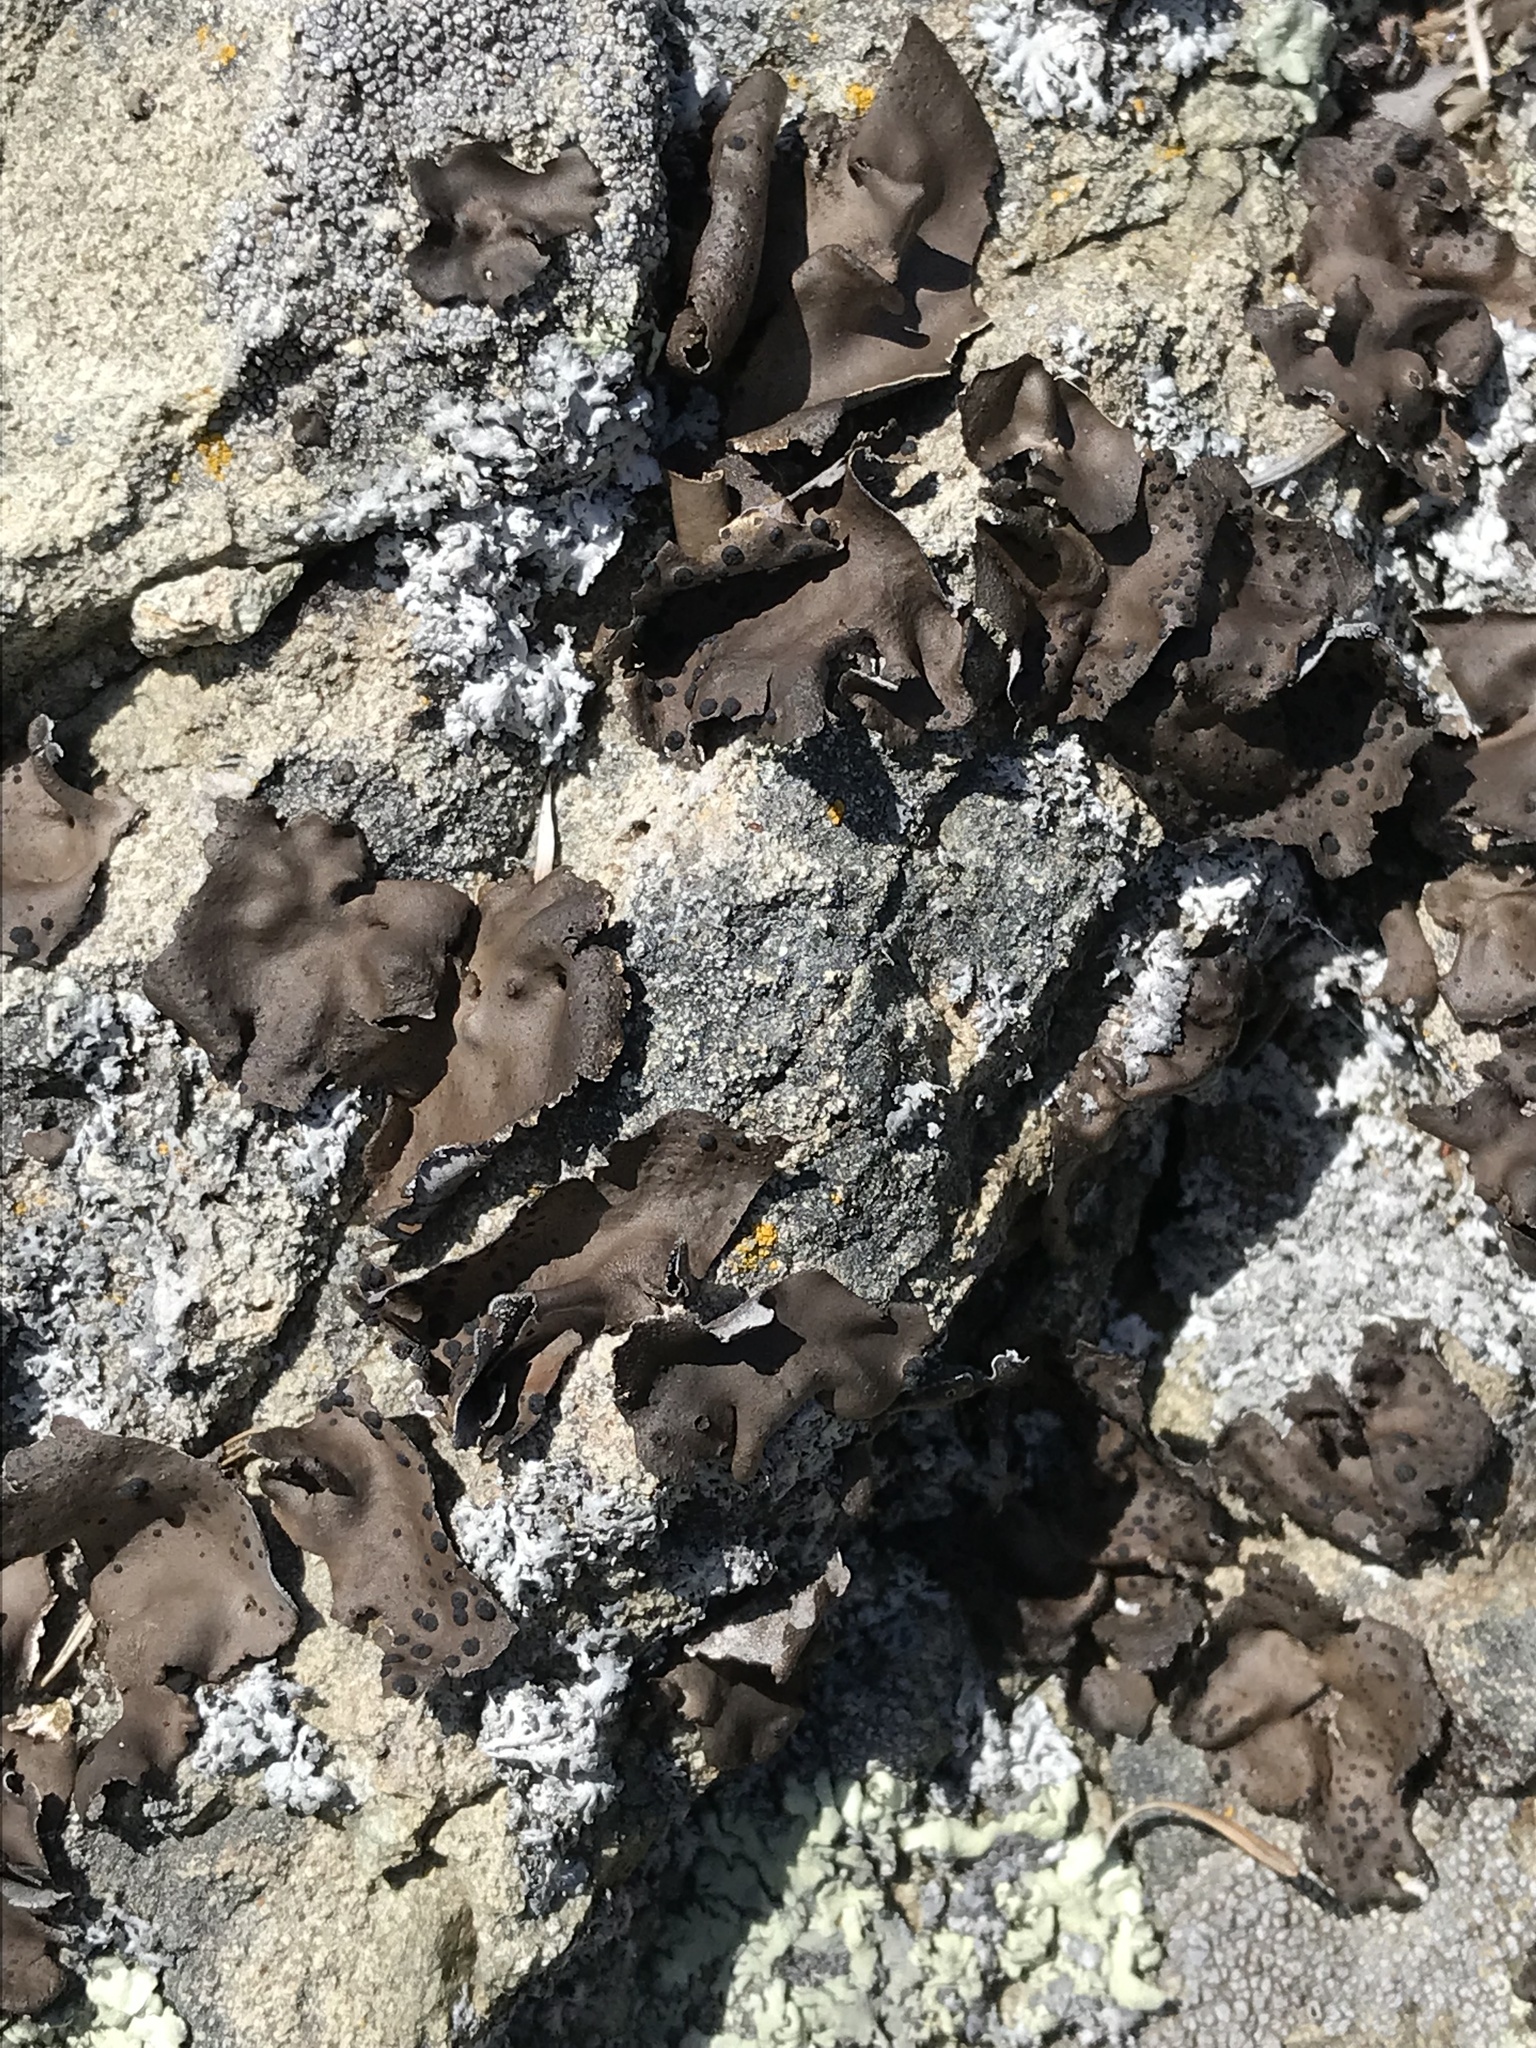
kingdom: Fungi
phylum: Ascomycota
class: Lecanoromycetes
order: Umbilicariales
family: Umbilicariaceae
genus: Umbilicaria
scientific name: Umbilicaria phaea
